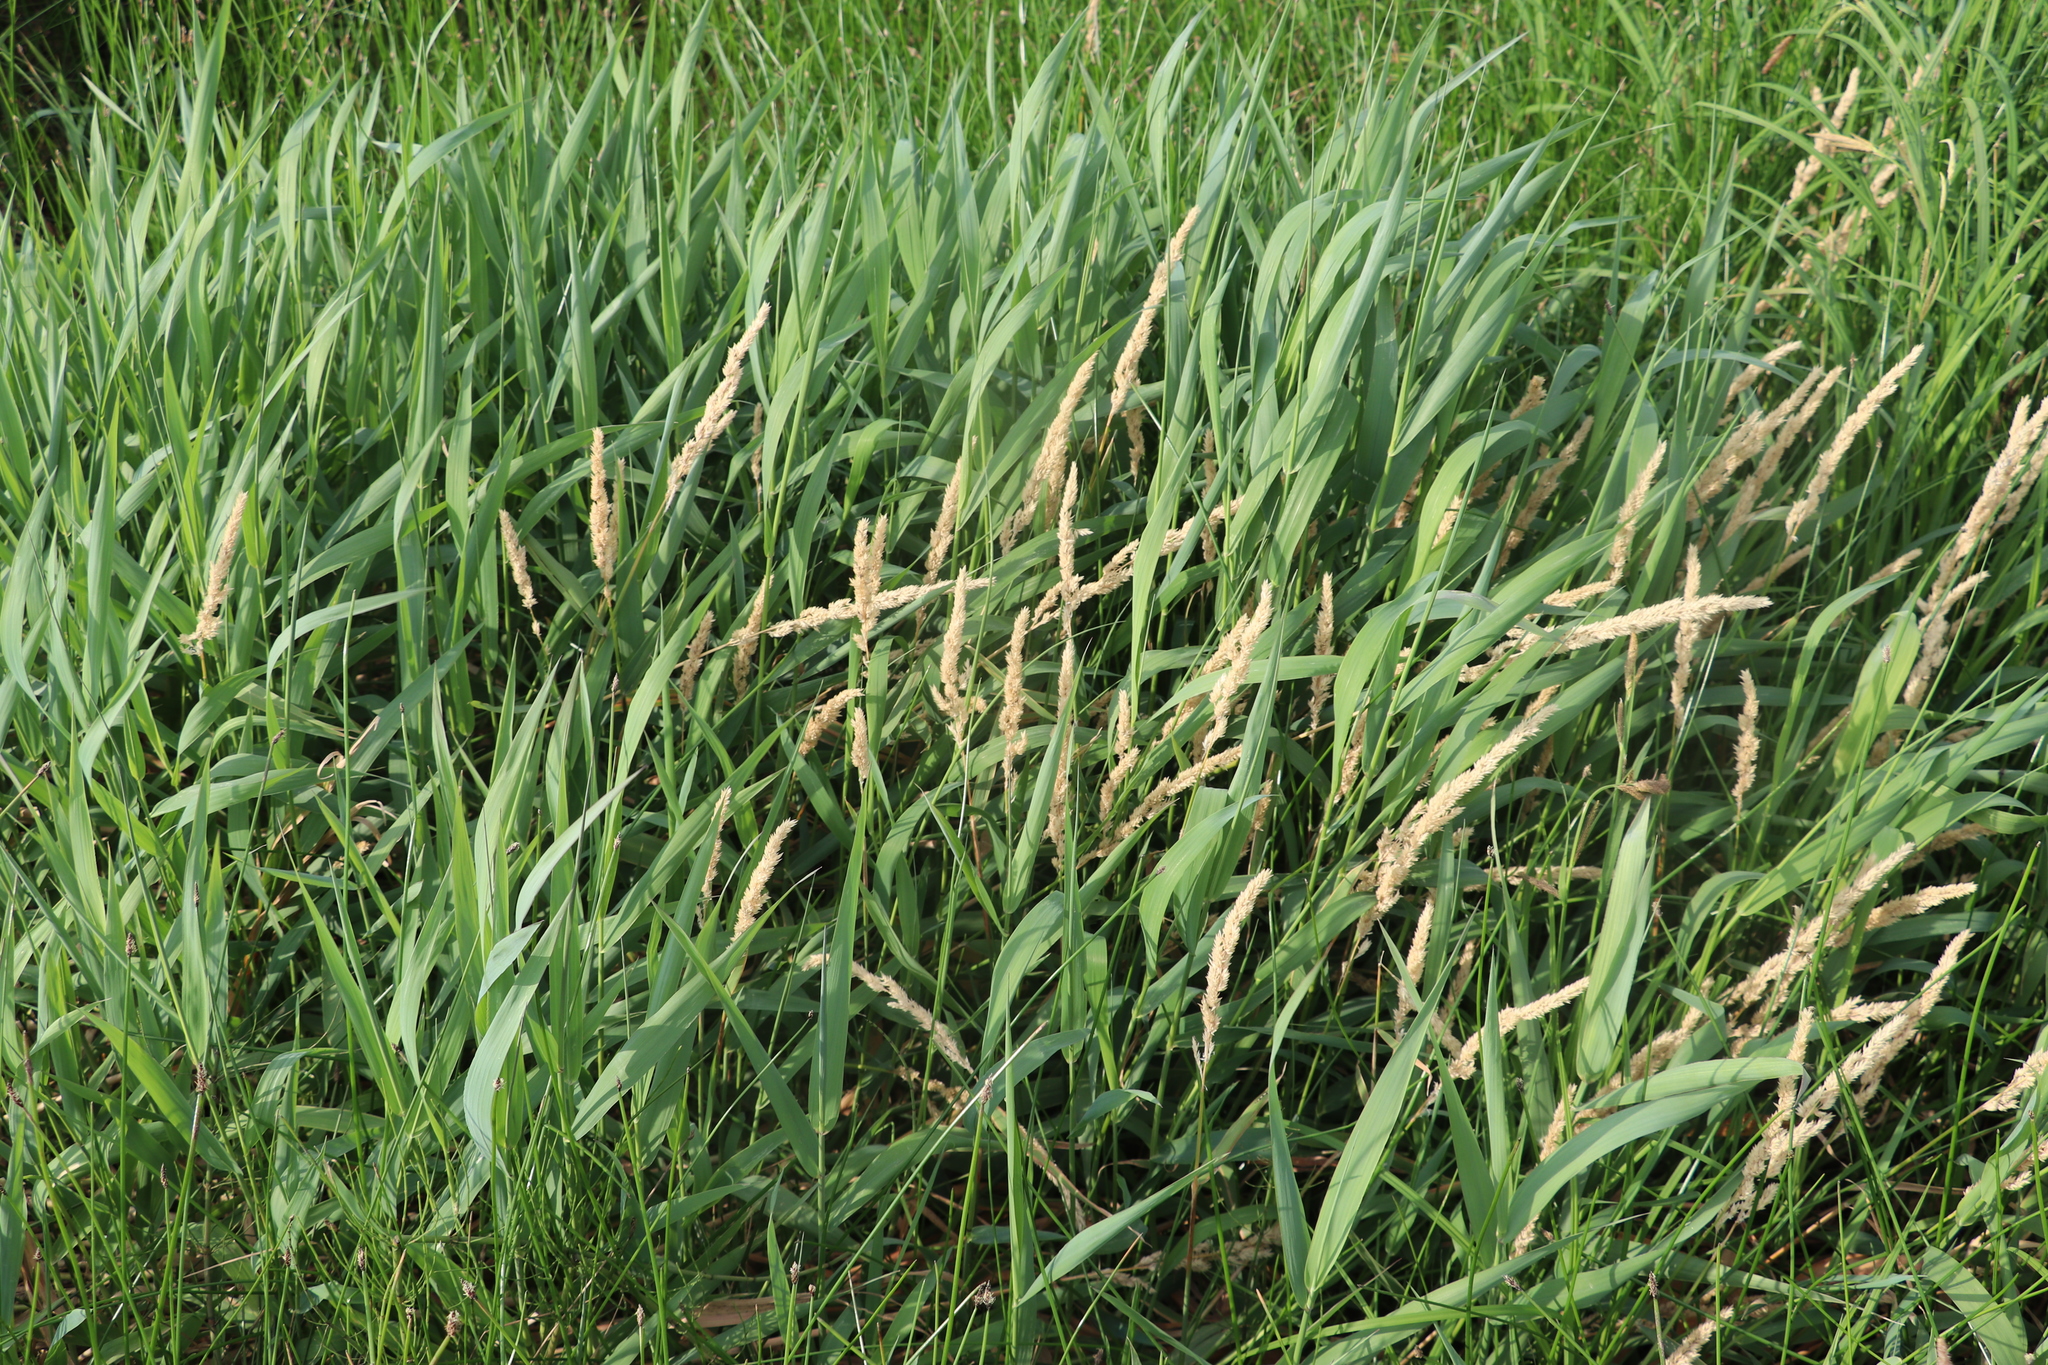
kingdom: Plantae
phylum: Tracheophyta
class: Liliopsida
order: Poales
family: Poaceae
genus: Phalaris
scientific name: Phalaris arundinacea
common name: Reed canary-grass
